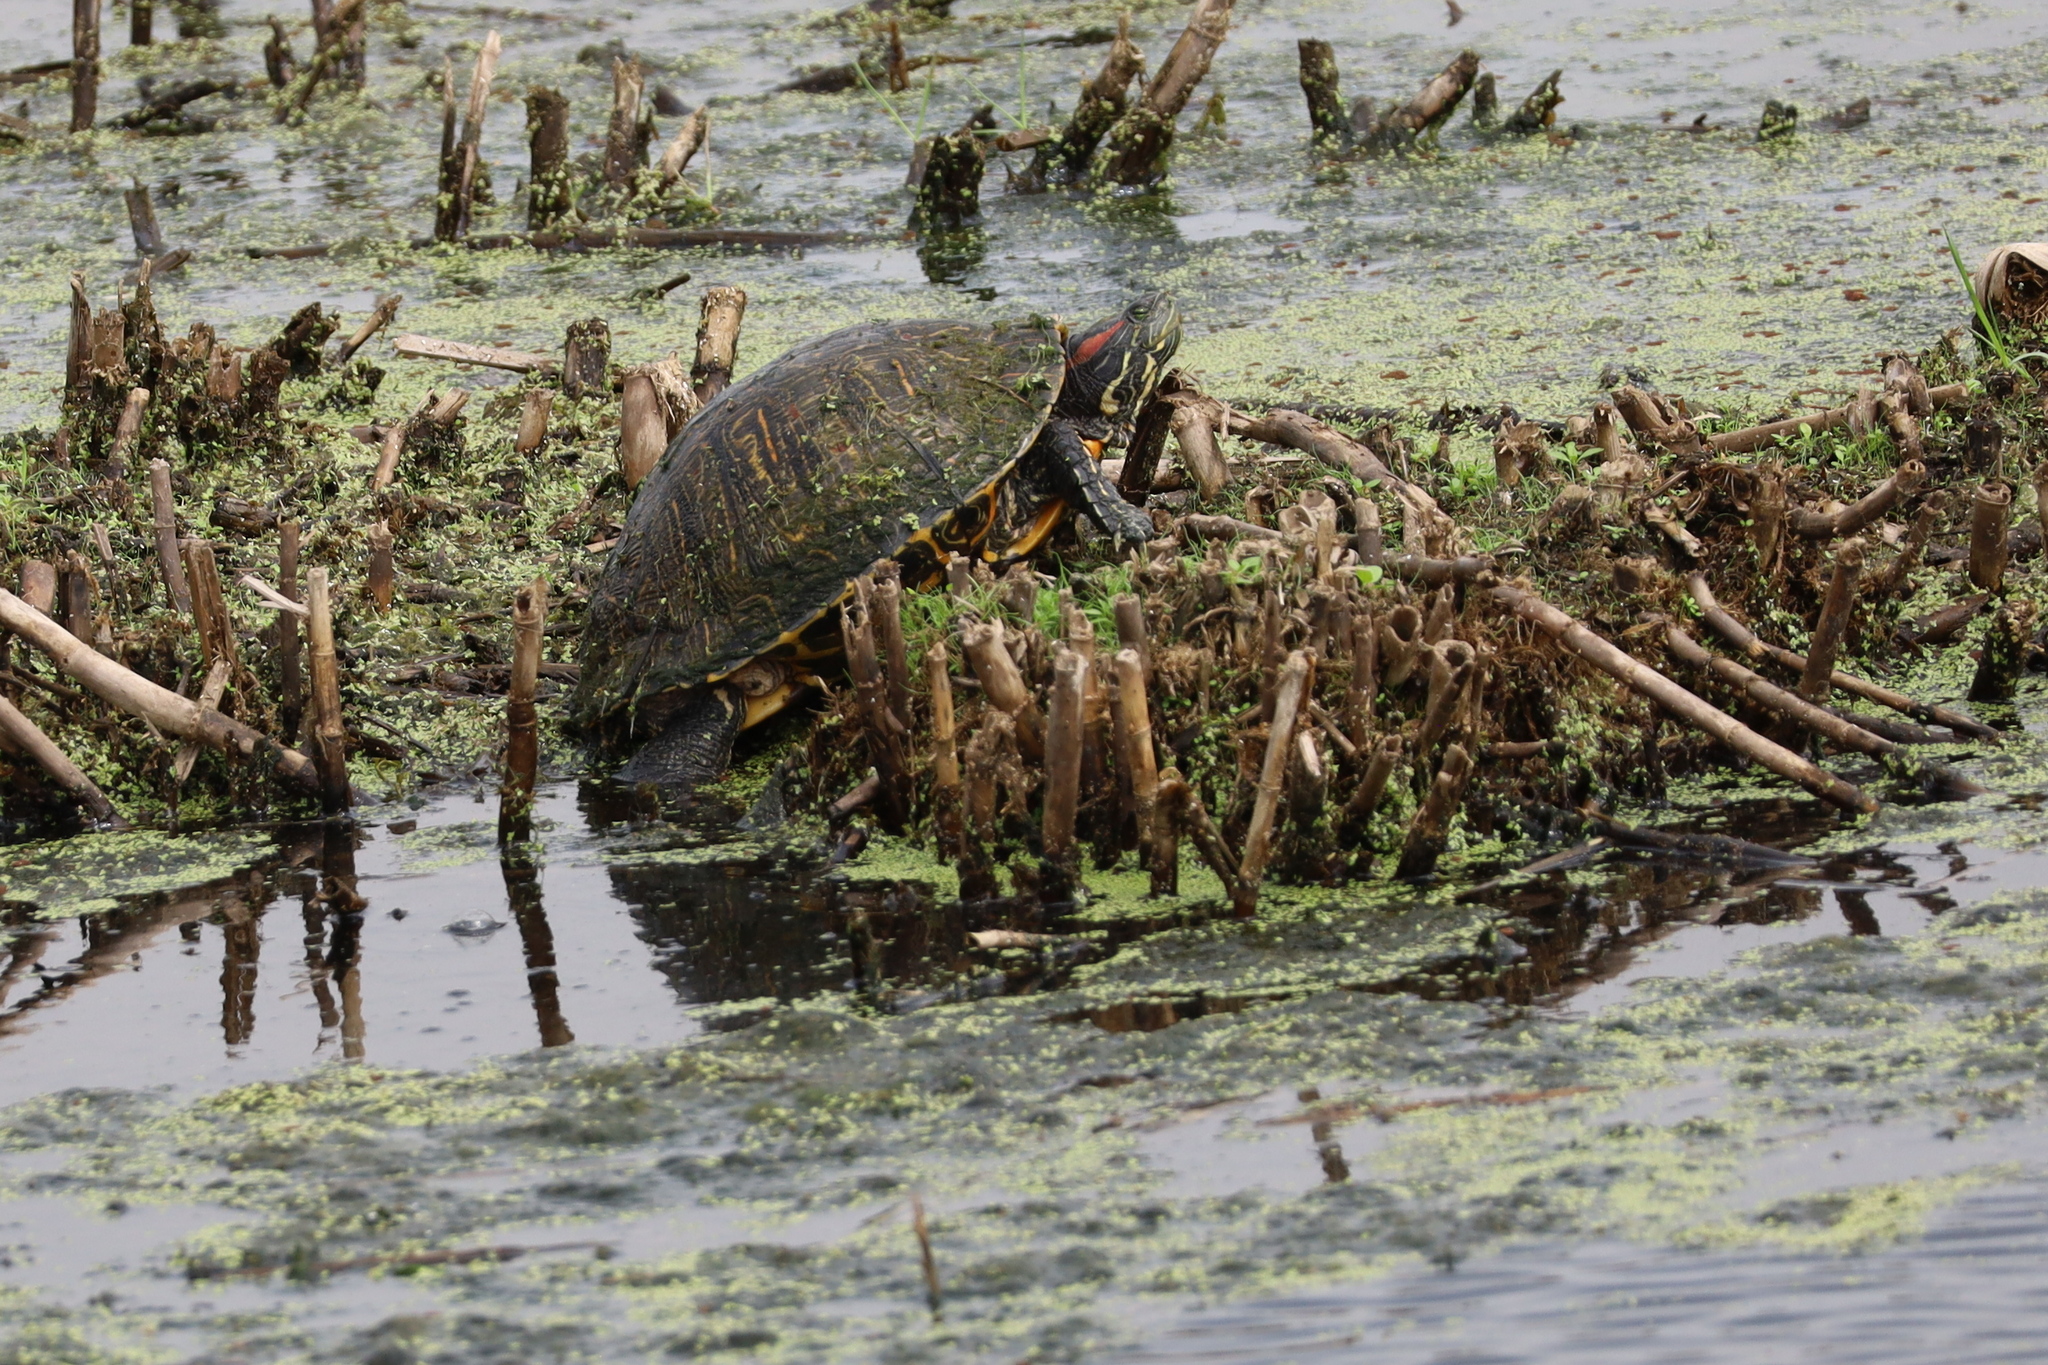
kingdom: Animalia
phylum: Chordata
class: Testudines
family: Emydidae
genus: Trachemys
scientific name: Trachemys scripta
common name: Slider
